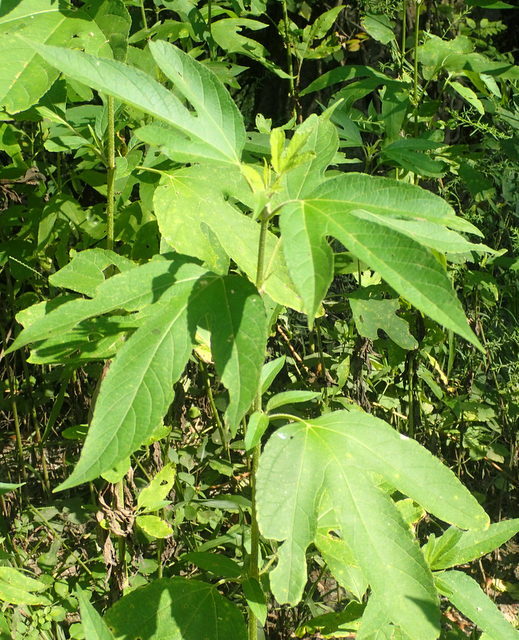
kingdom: Plantae
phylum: Tracheophyta
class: Magnoliopsida
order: Asterales
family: Asteraceae
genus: Ambrosia
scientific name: Ambrosia trifida
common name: Giant ragweed
